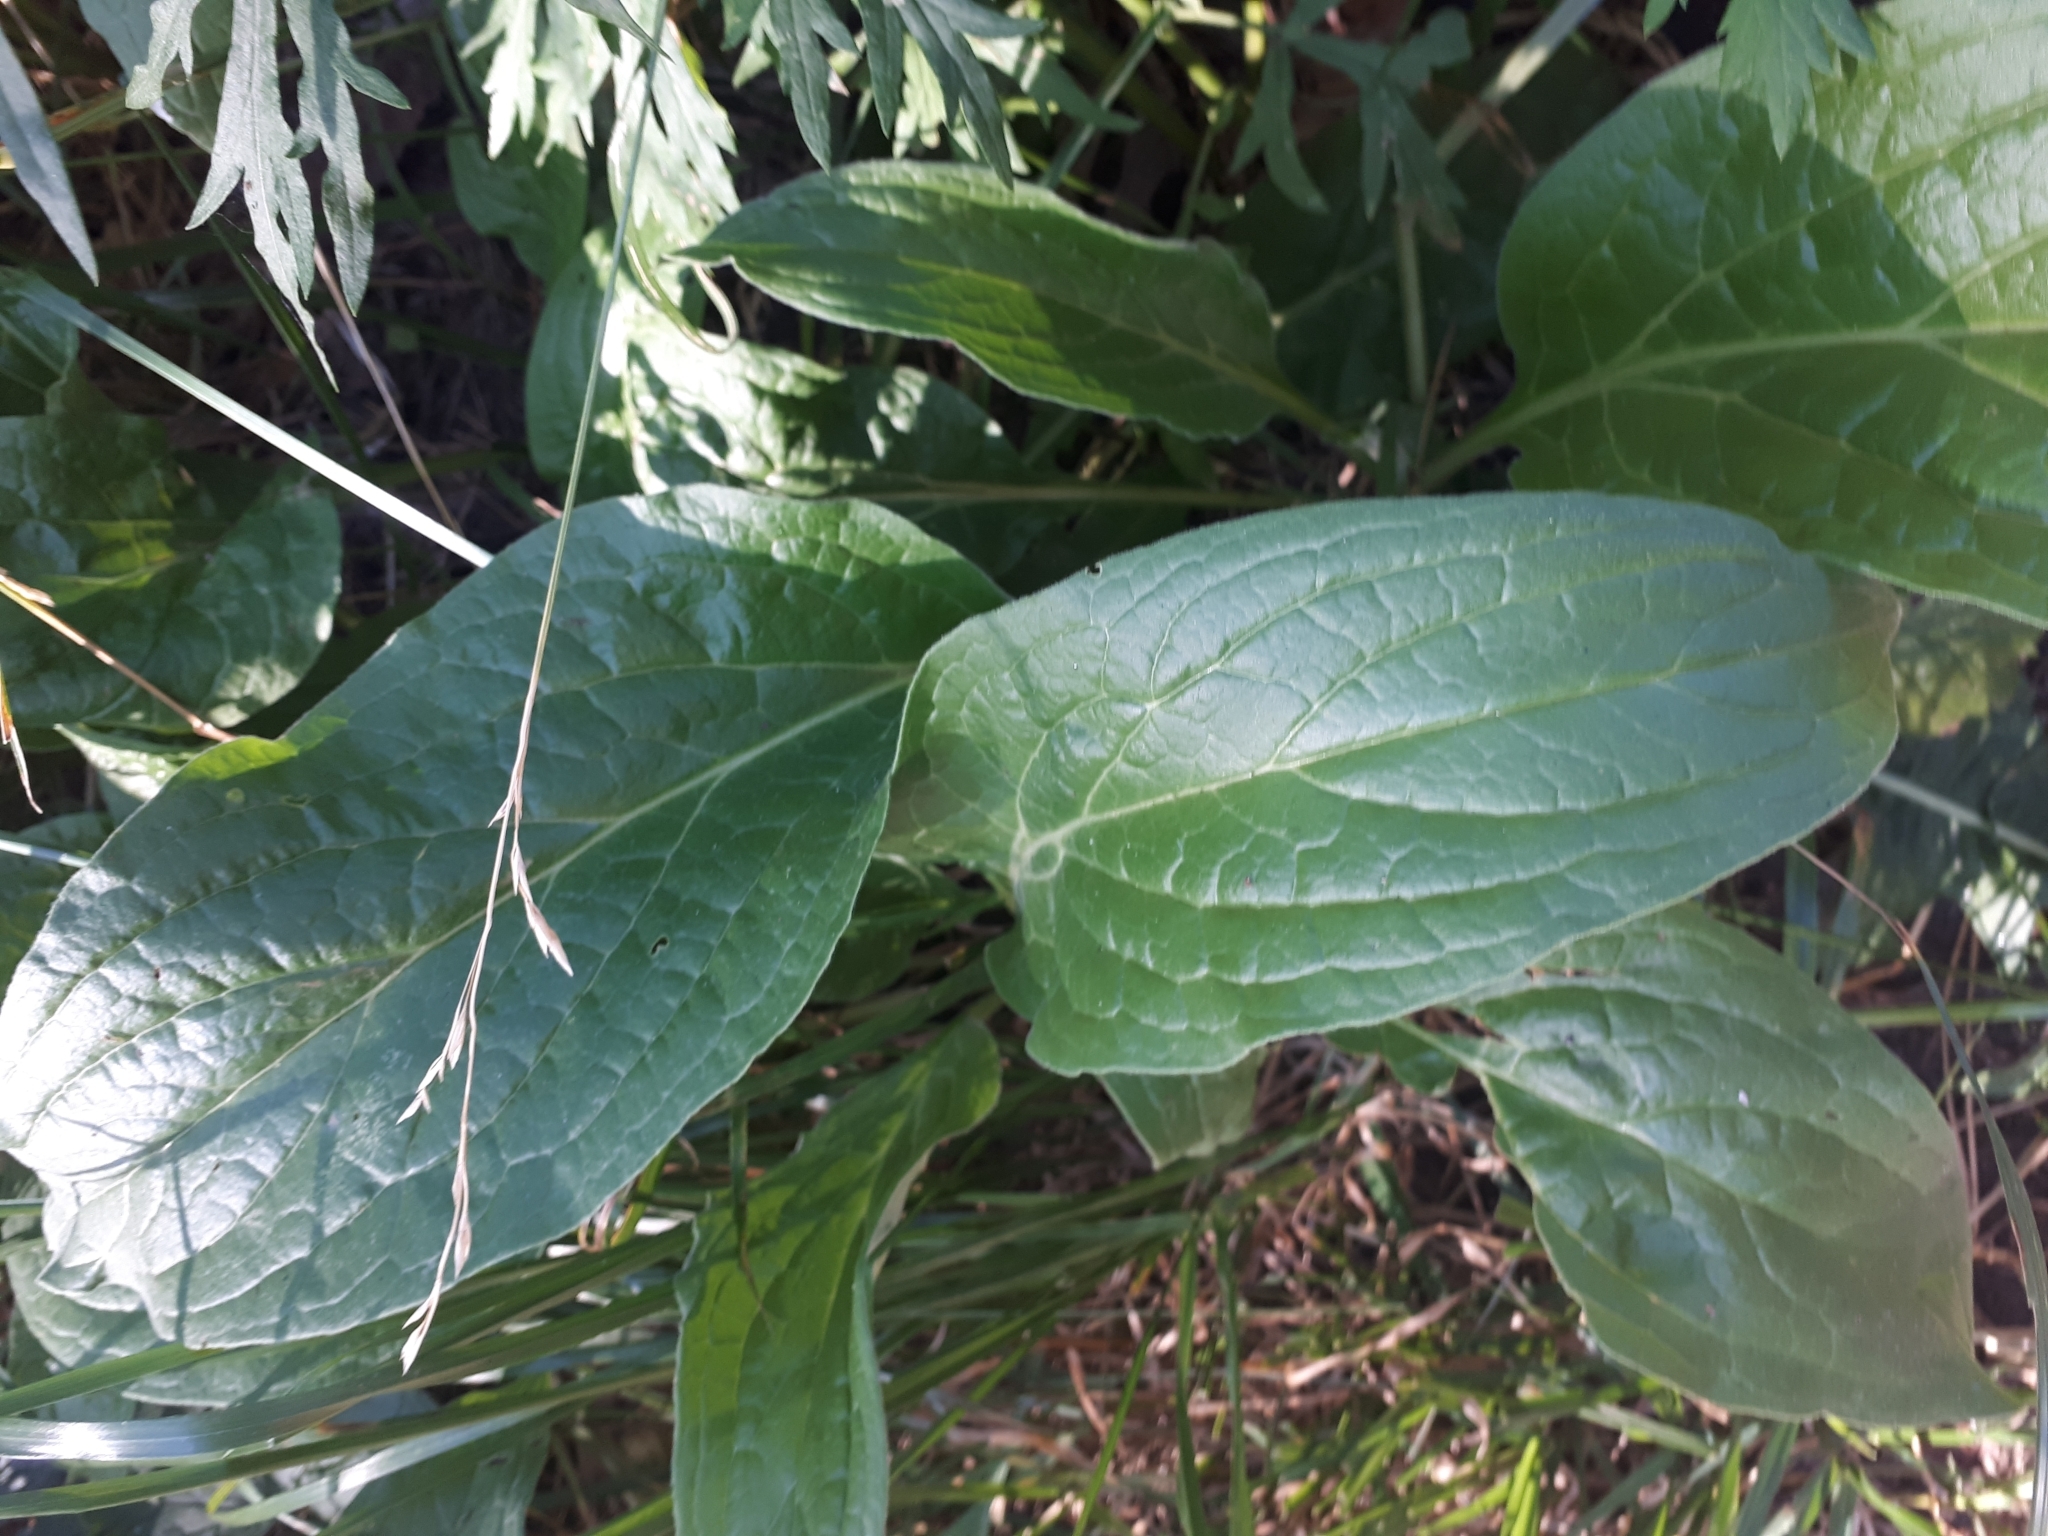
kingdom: Plantae
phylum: Tracheophyta
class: Magnoliopsida
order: Boraginales
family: Boraginaceae
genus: Cynoglossum
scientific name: Cynoglossum officinale
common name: Hound's-tongue
